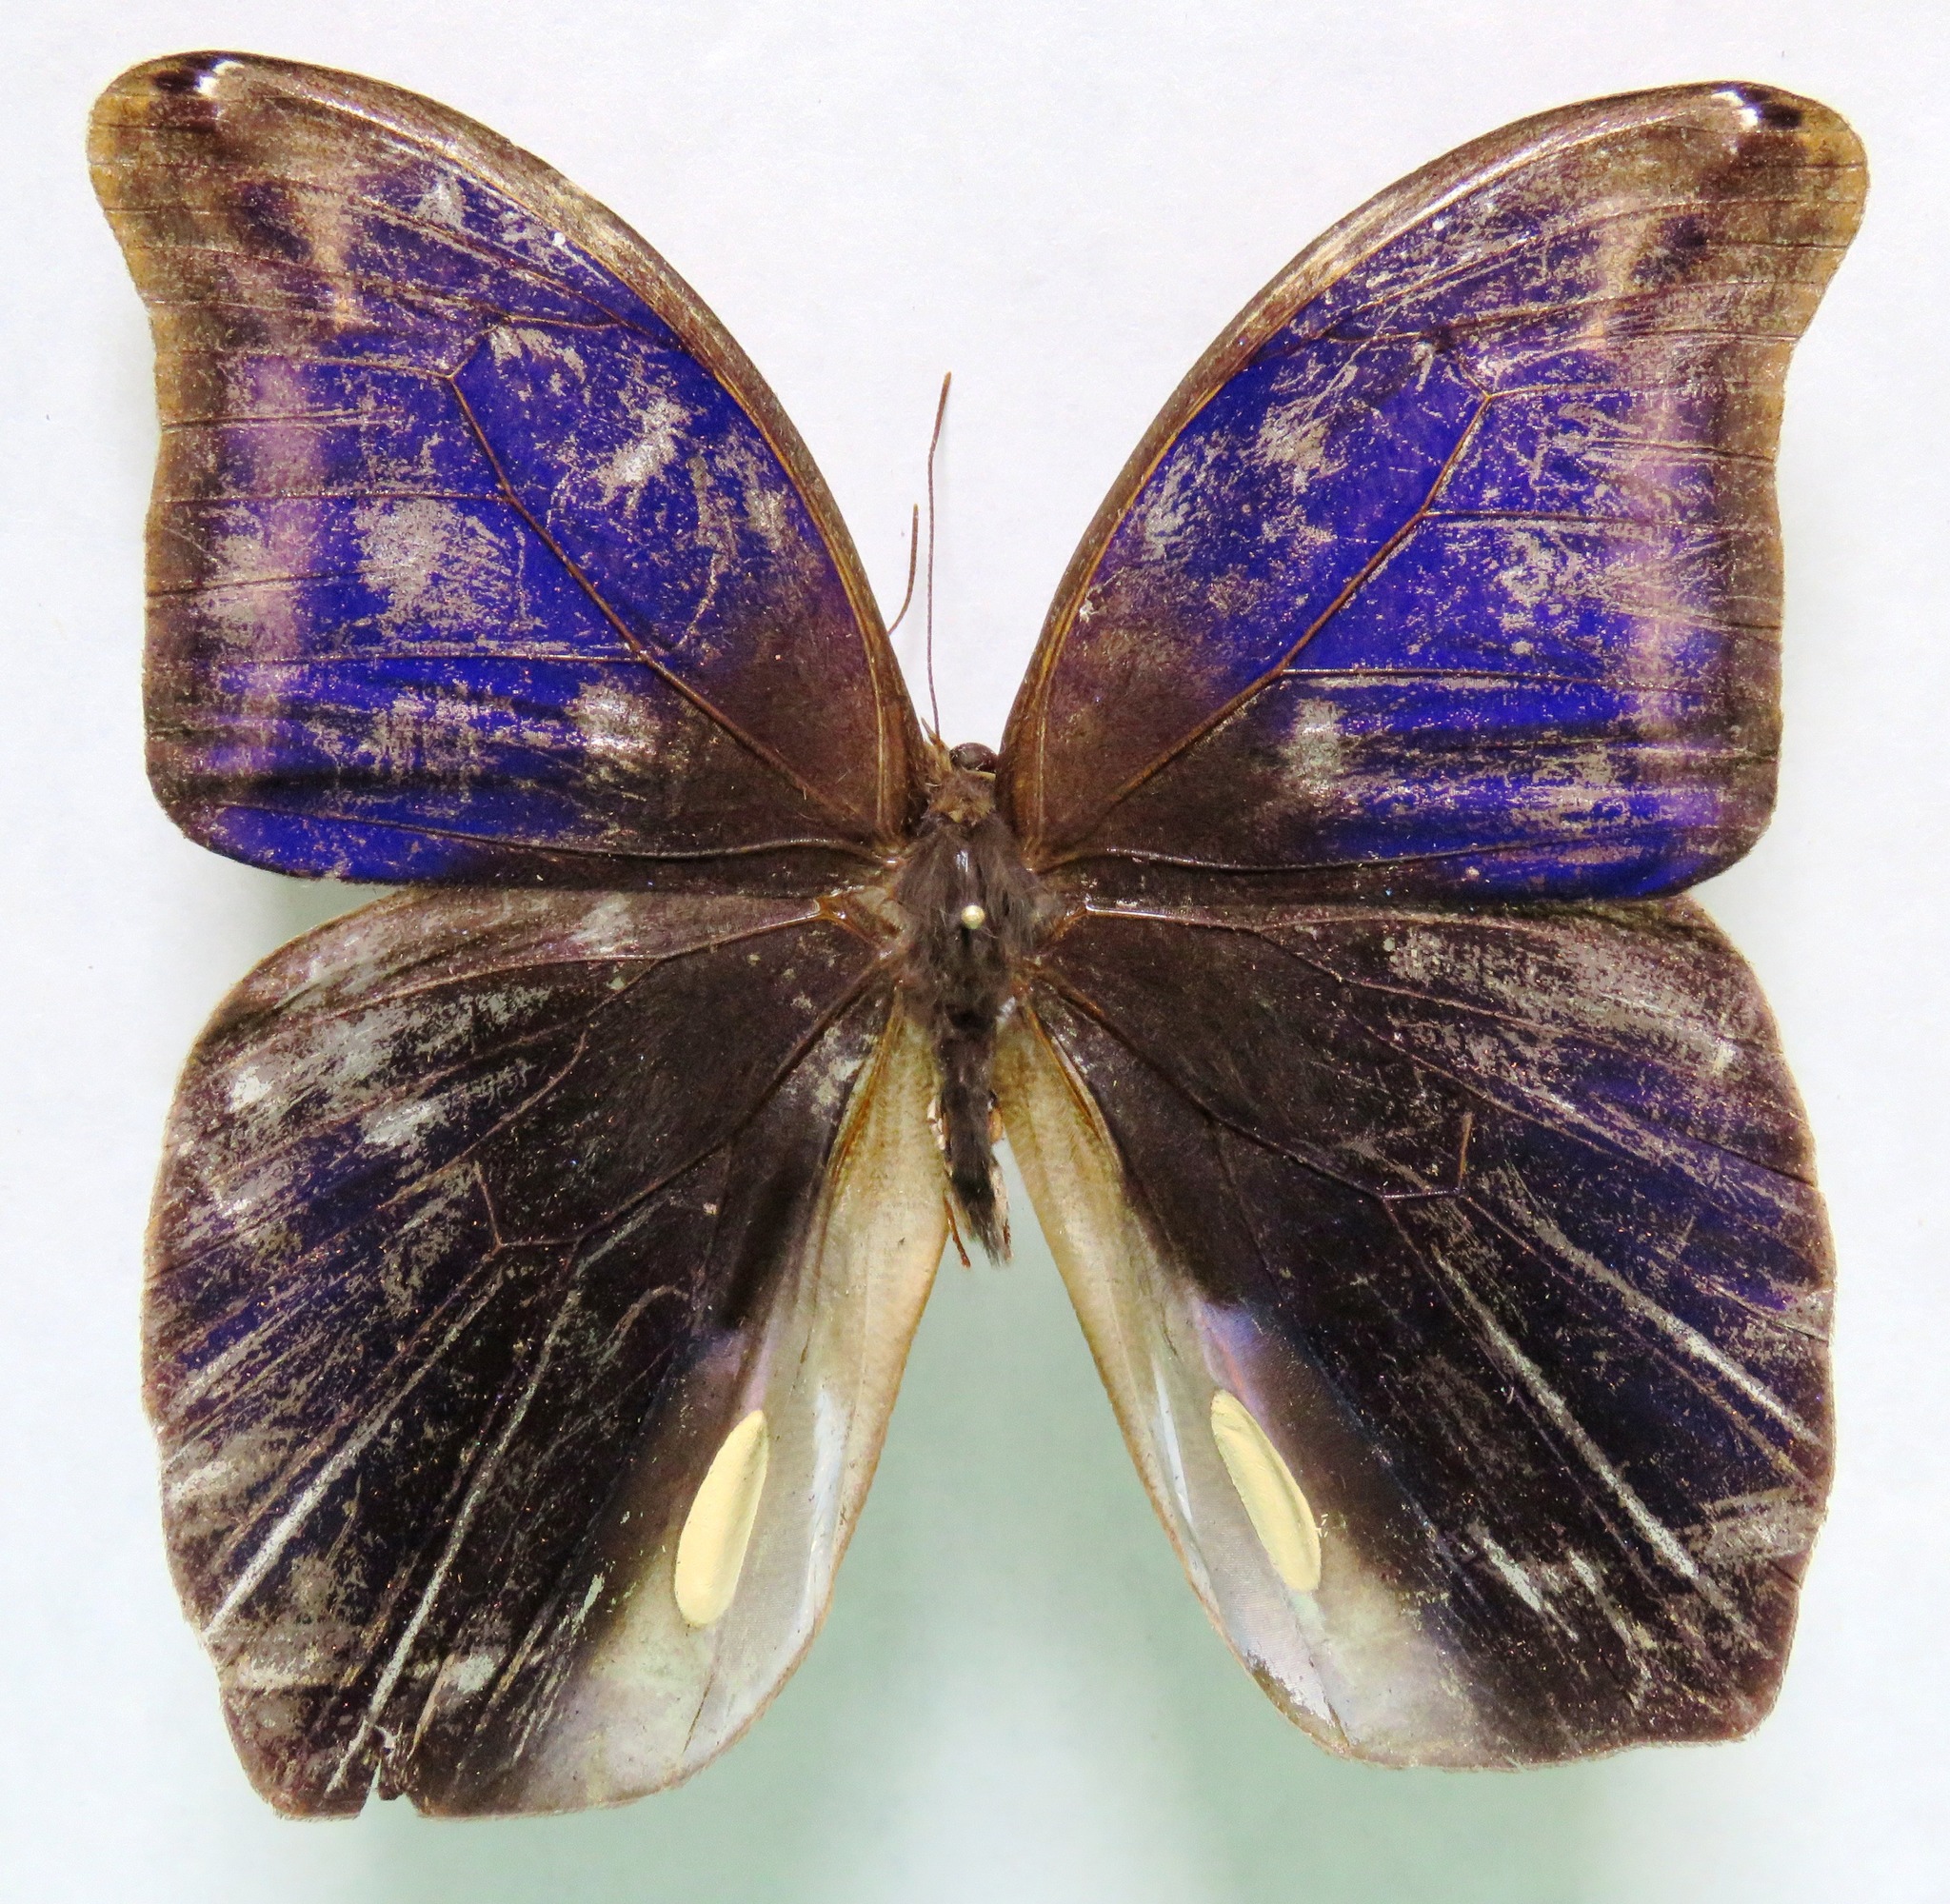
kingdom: Animalia
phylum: Arthropoda
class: Insecta
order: Lepidoptera
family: Nymphalidae
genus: Eryphanis
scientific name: Eryphanis lycomedon
